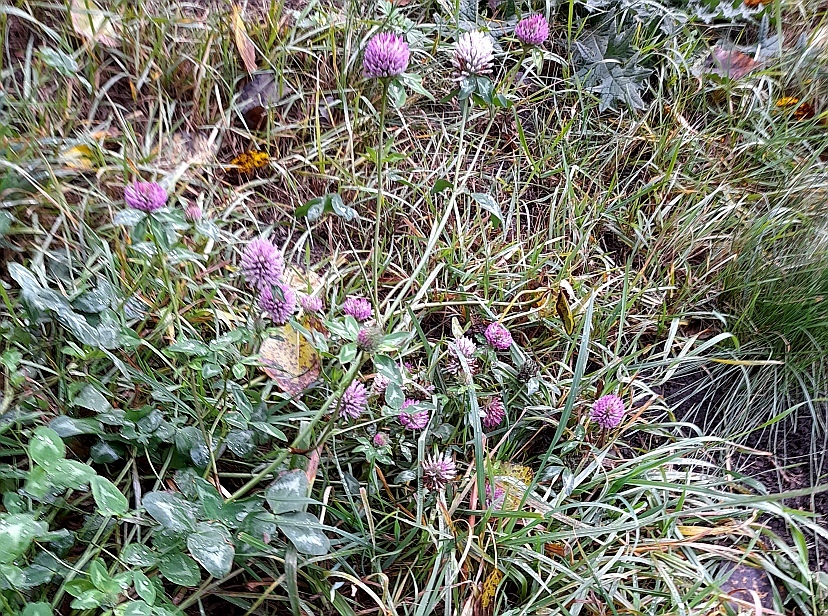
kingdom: Plantae
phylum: Tracheophyta
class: Magnoliopsida
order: Fabales
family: Fabaceae
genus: Trifolium
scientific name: Trifolium pratense
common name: Red clover
